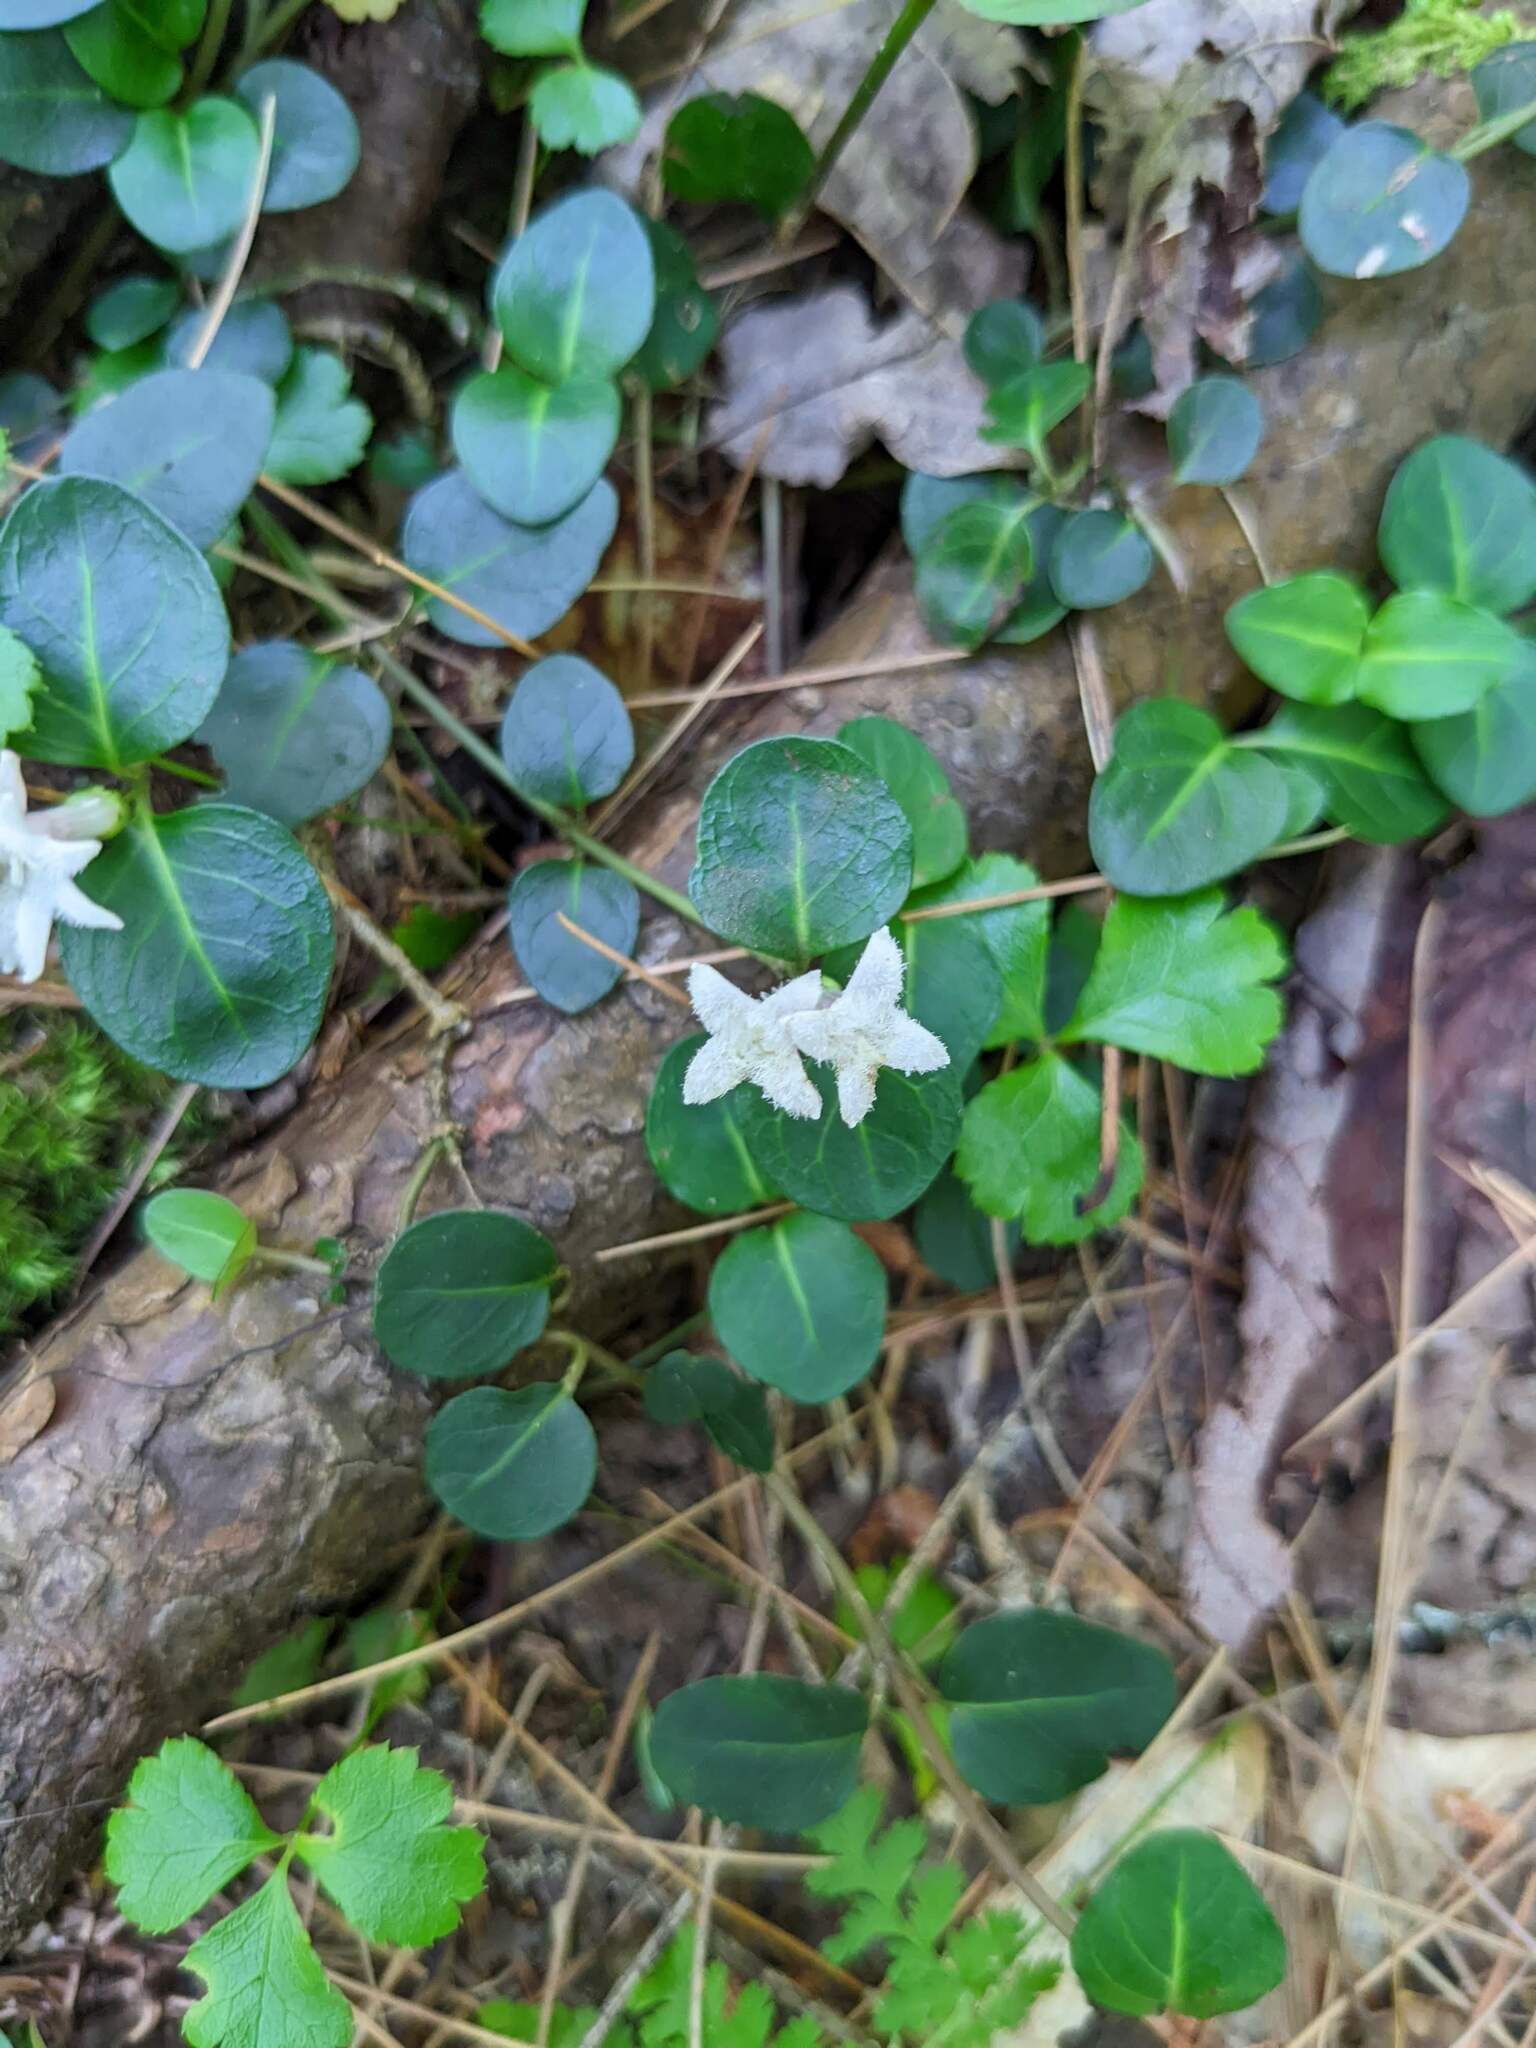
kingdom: Plantae
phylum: Tracheophyta
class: Magnoliopsida
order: Gentianales
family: Rubiaceae
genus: Mitchella
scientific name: Mitchella repens
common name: Partridge-berry
